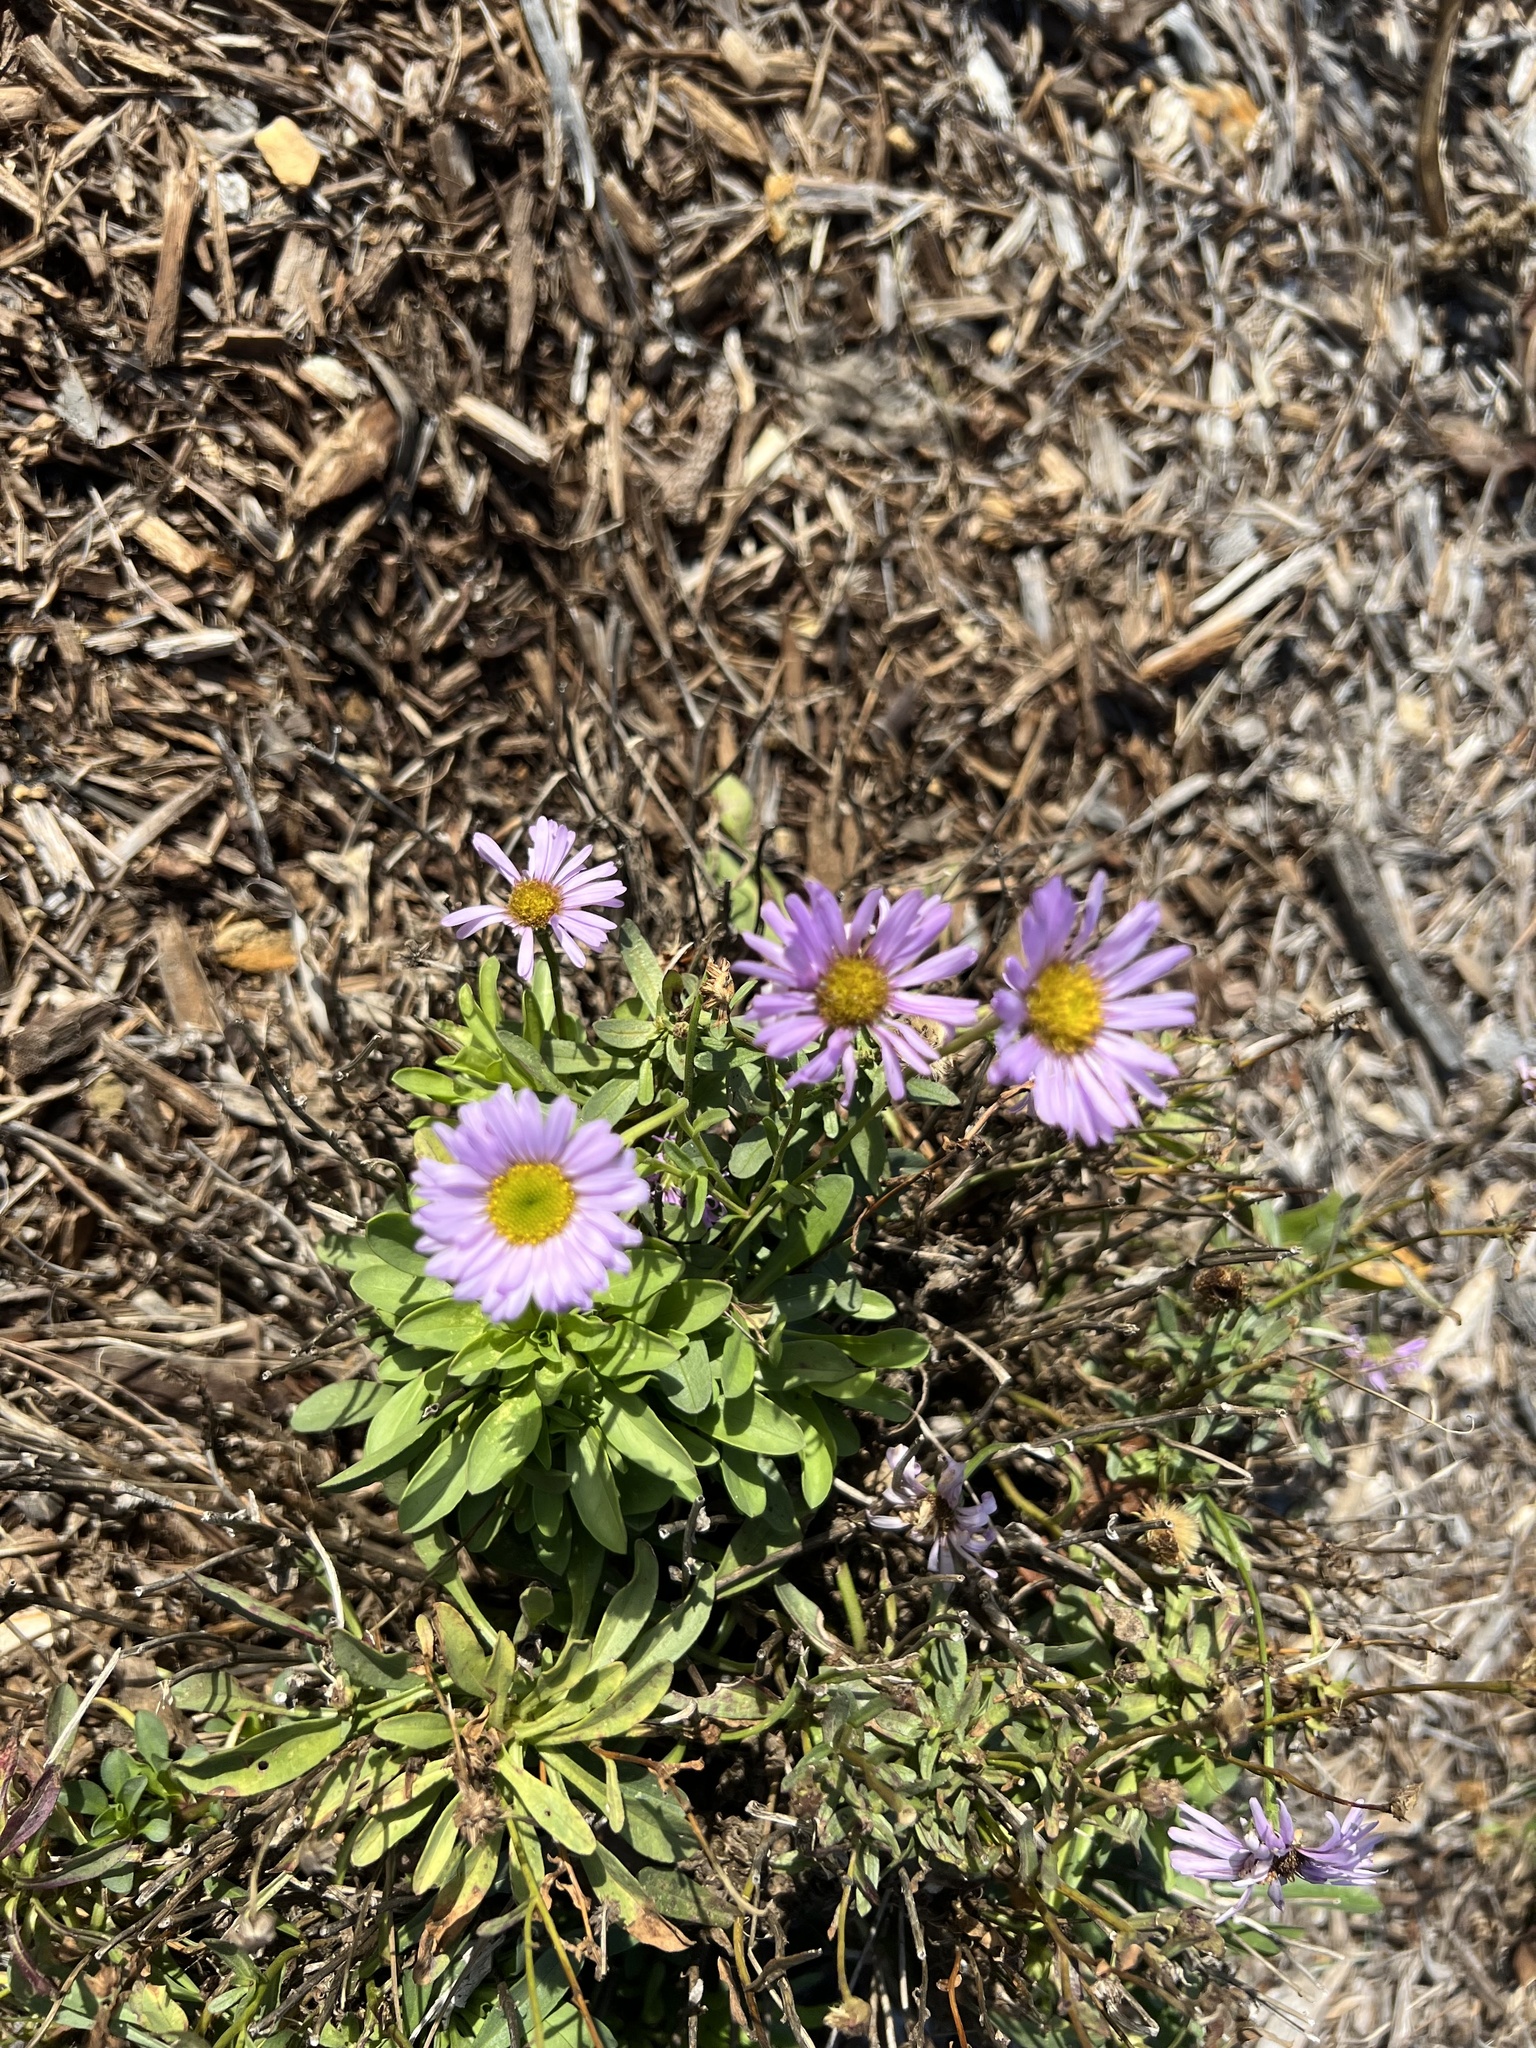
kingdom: Plantae
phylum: Tracheophyta
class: Magnoliopsida
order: Asterales
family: Asteraceae
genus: Erigeron
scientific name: Erigeron glaucus
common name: Seaside daisy
